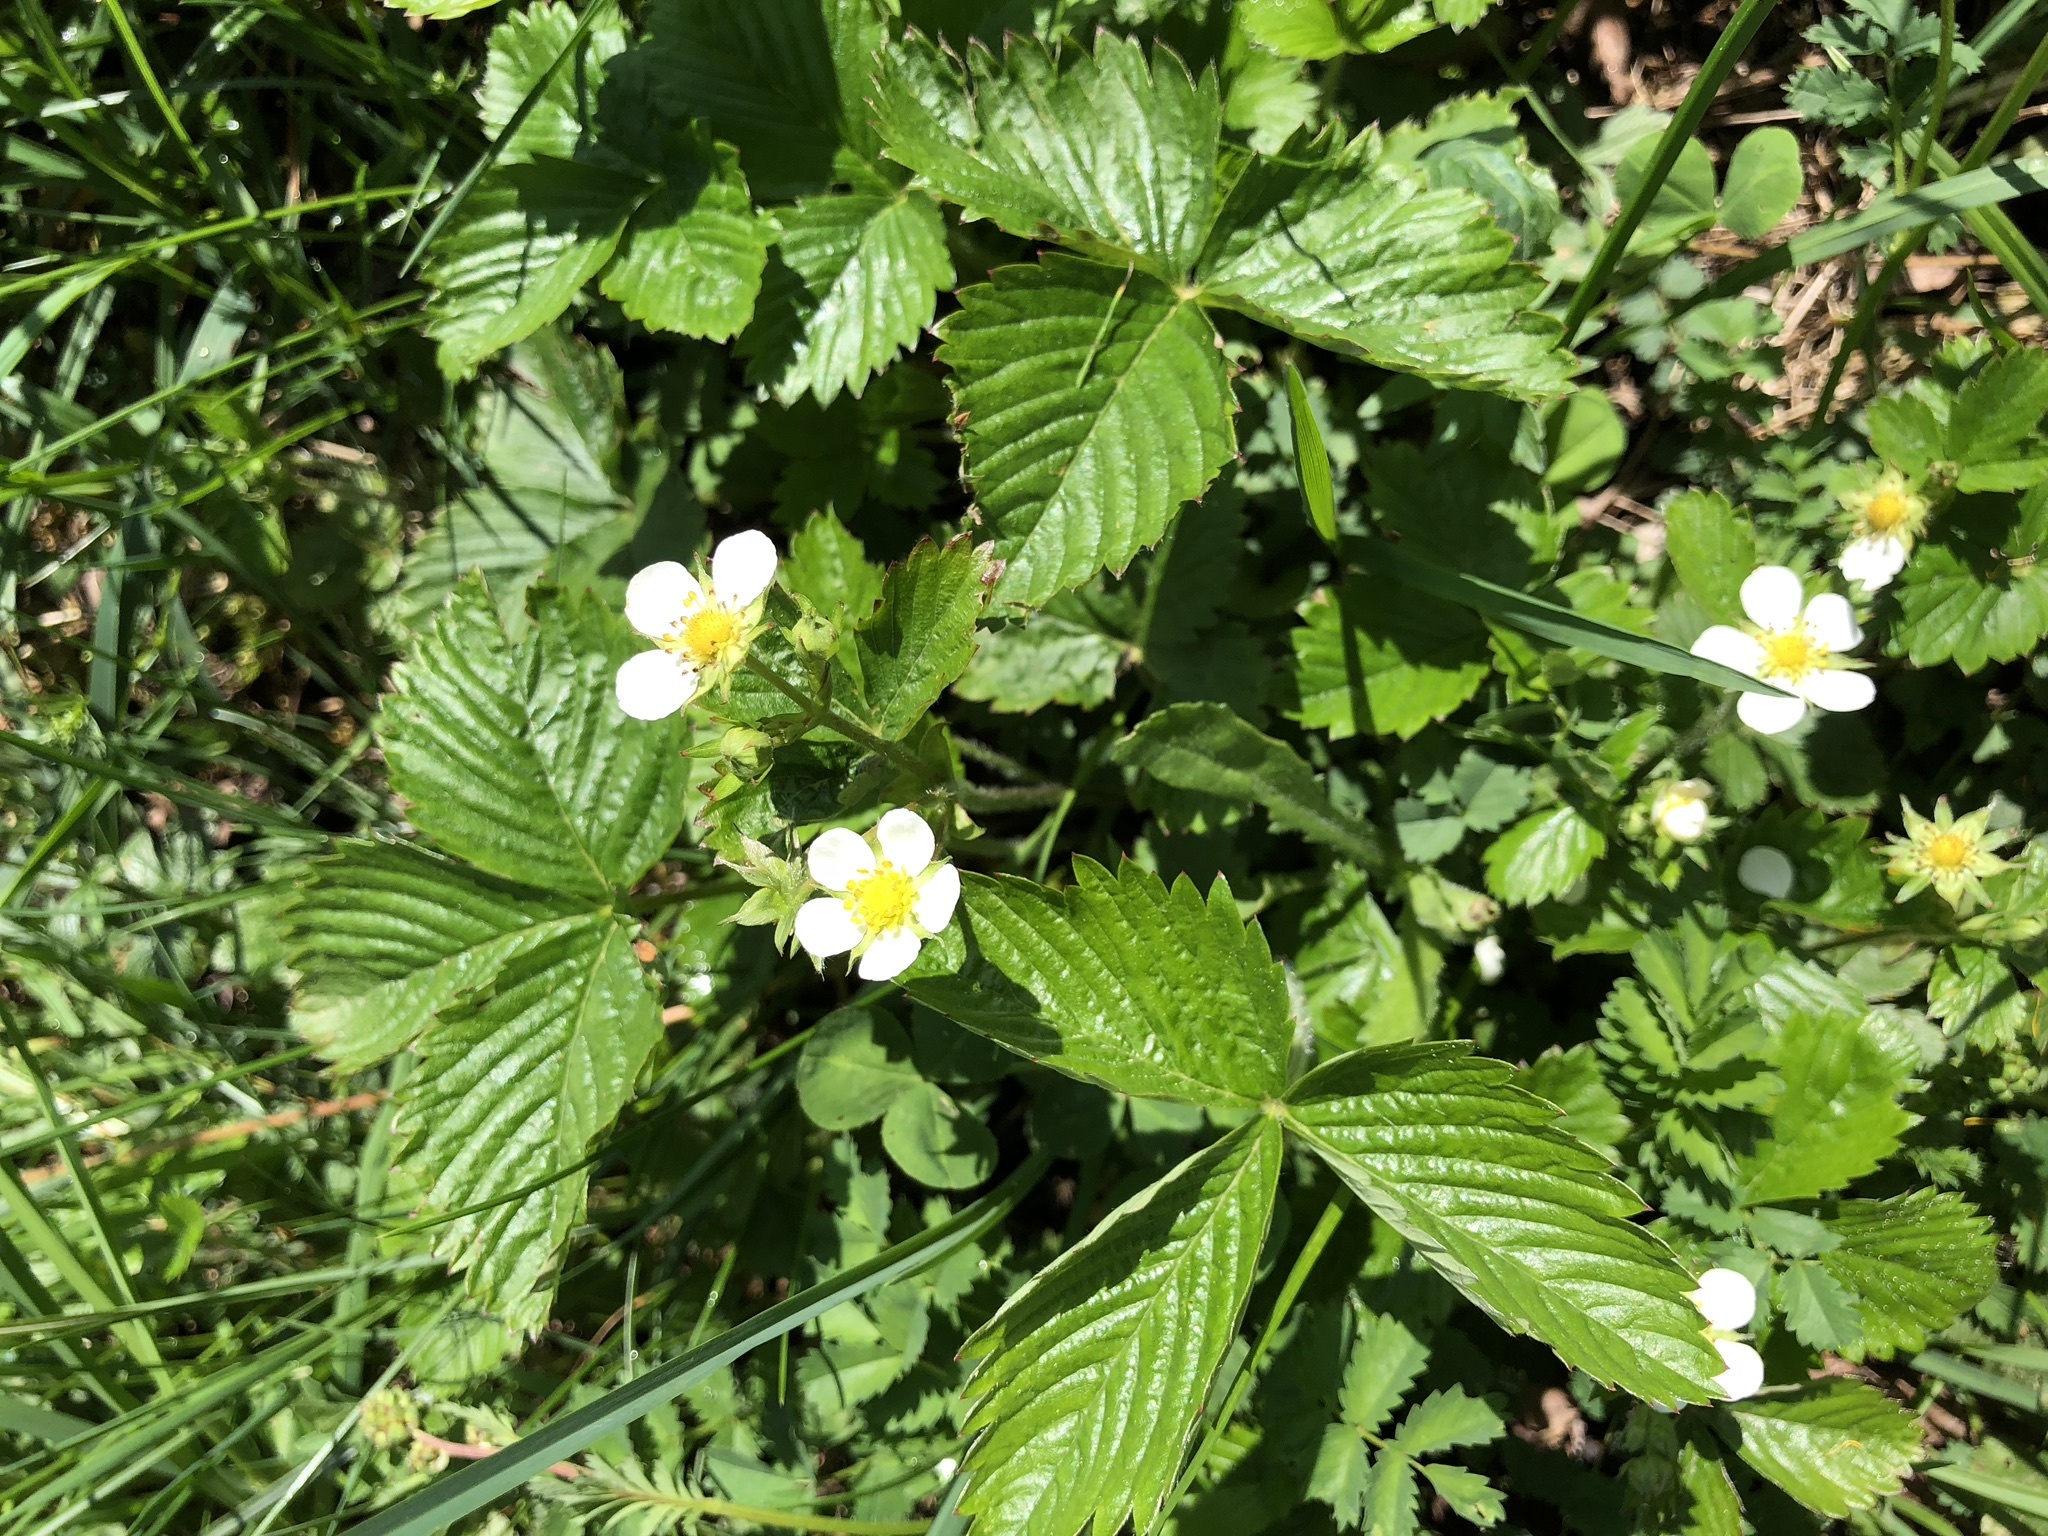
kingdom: Plantae
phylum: Tracheophyta
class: Magnoliopsida
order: Rosales
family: Rosaceae
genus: Fragaria
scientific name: Fragaria vesca
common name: Wild strawberry
